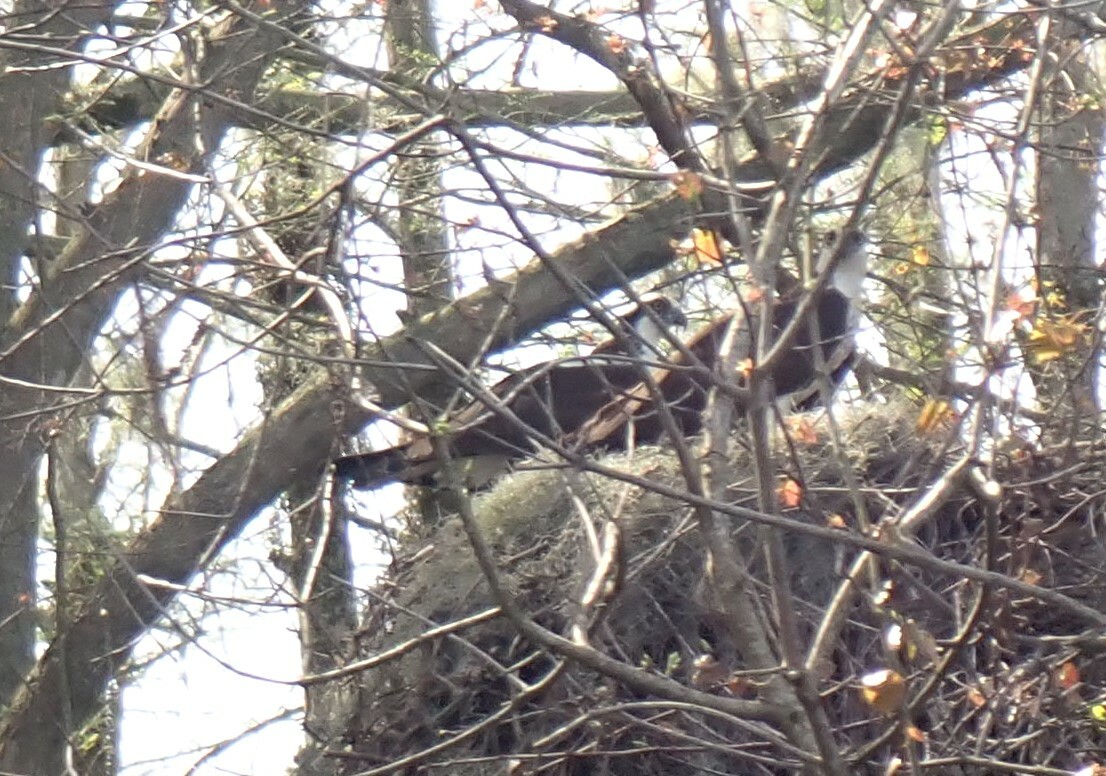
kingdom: Animalia
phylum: Chordata
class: Aves
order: Accipitriformes
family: Pandionidae
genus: Pandion
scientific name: Pandion haliaetus
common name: Osprey
